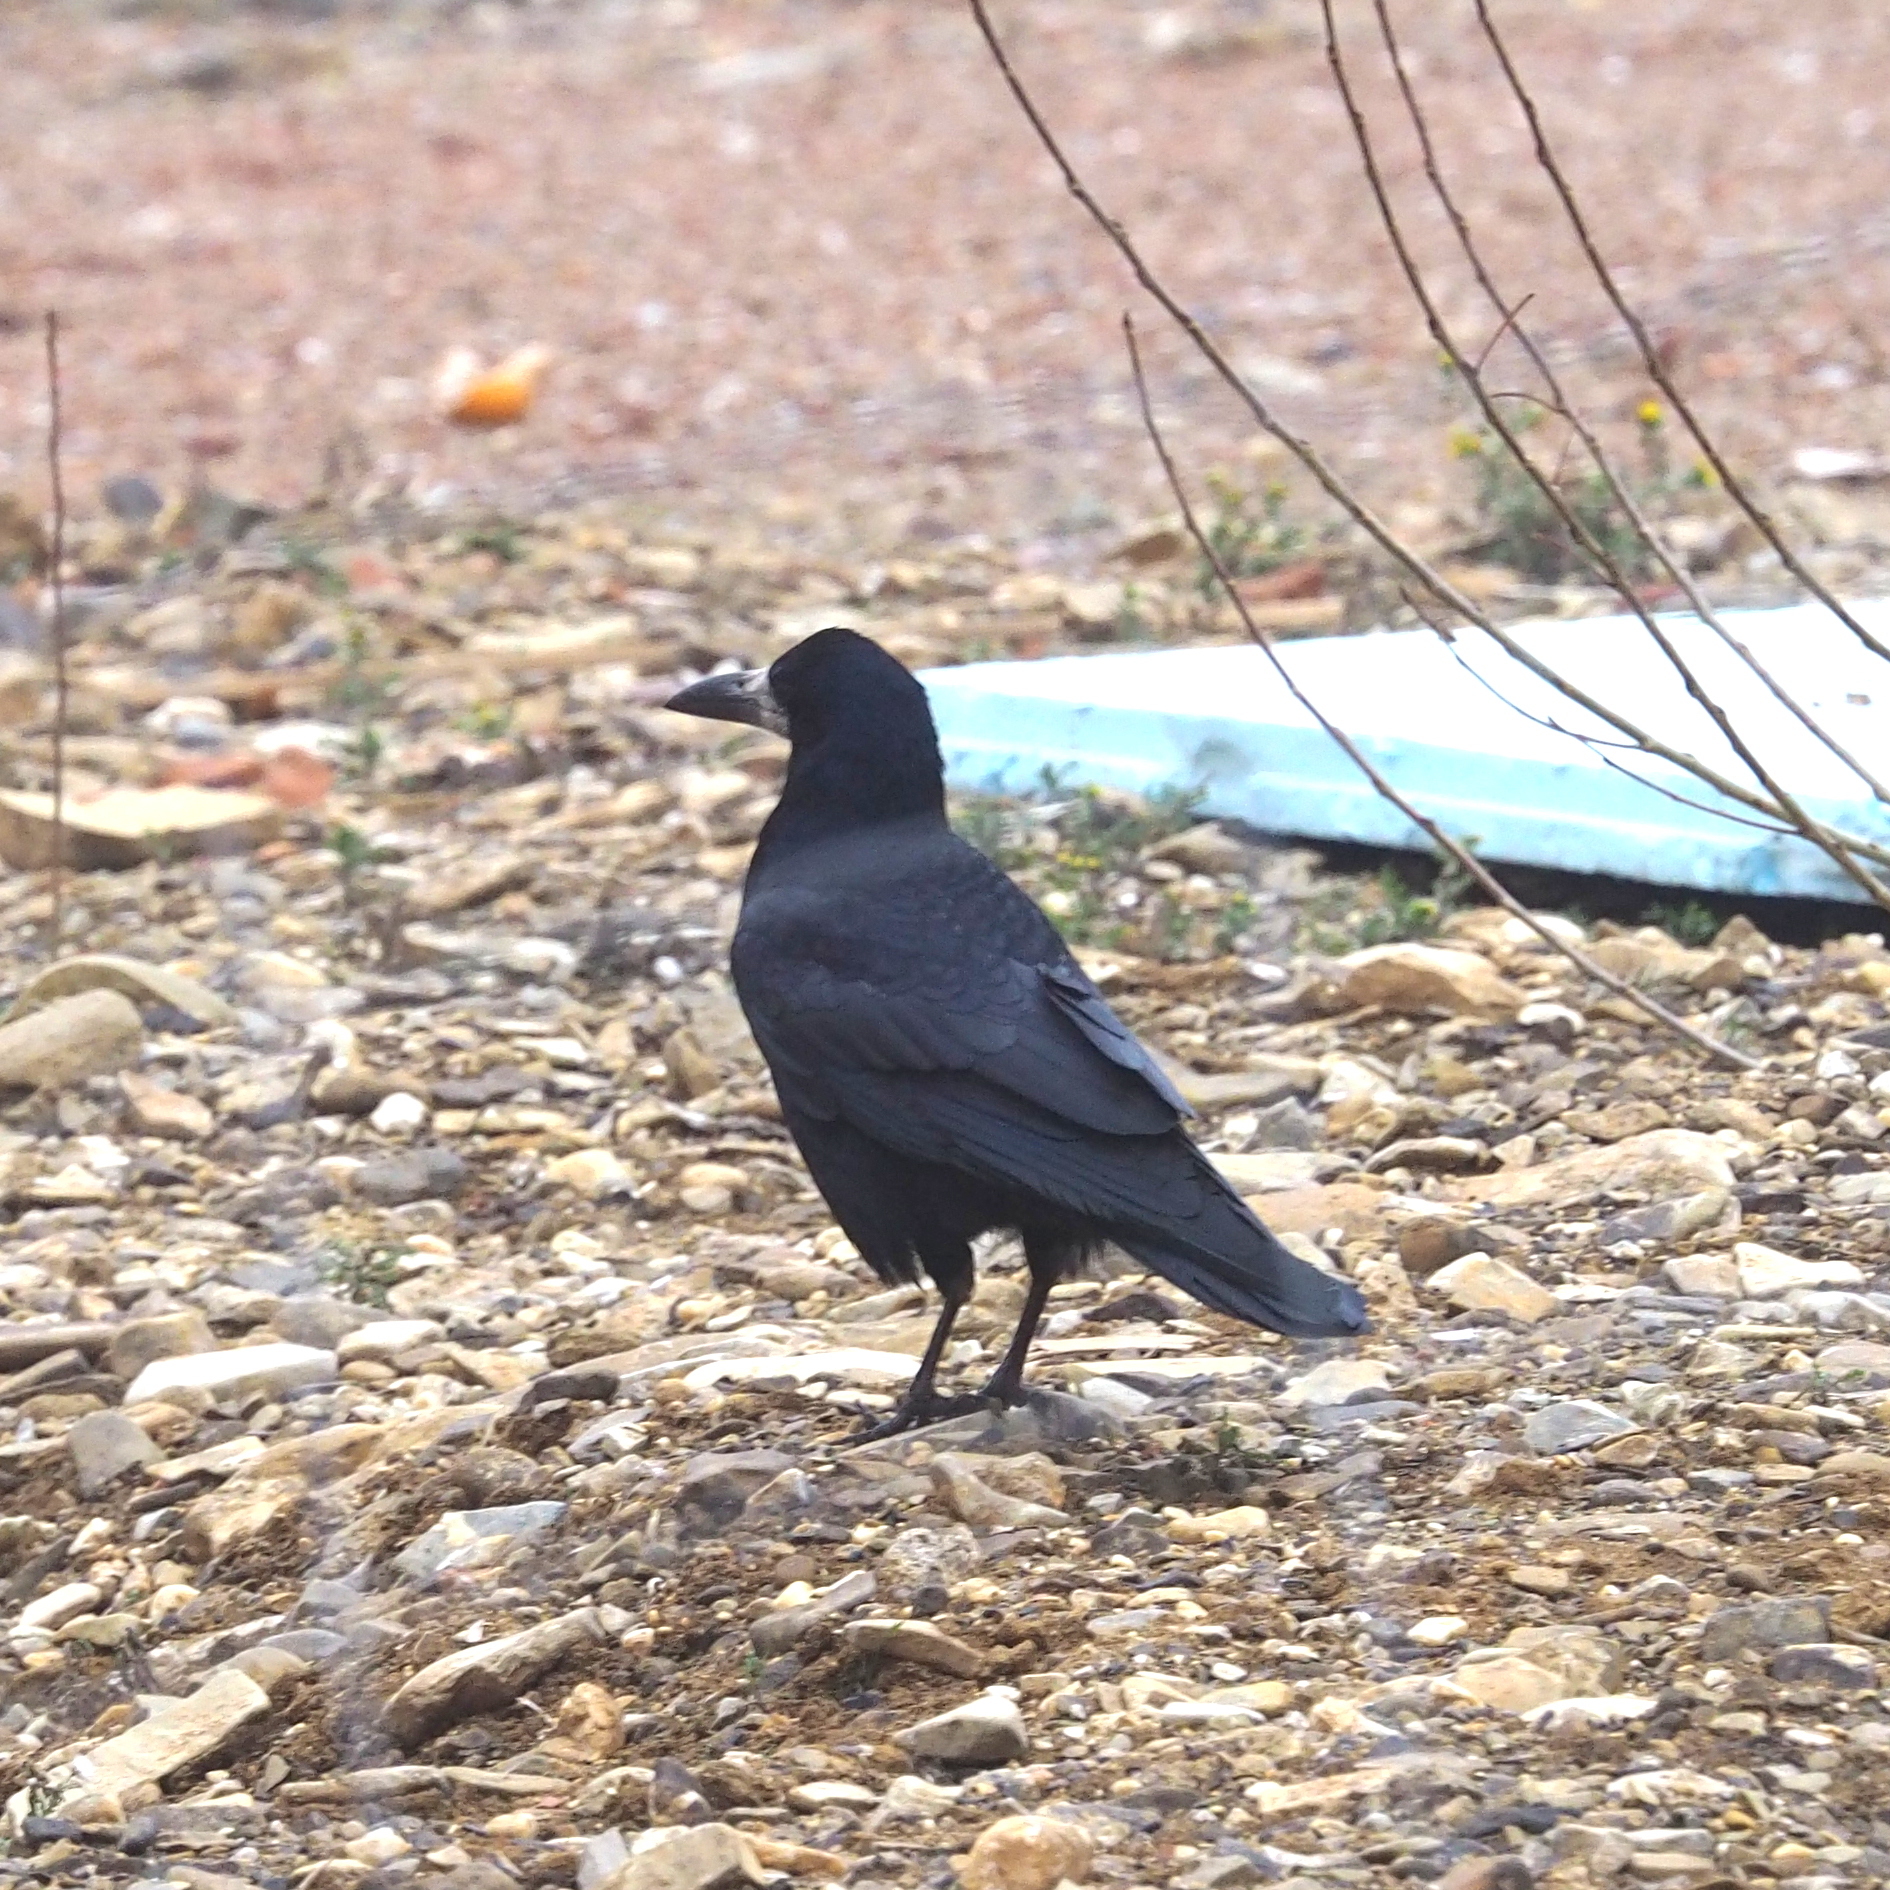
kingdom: Animalia
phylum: Chordata
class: Aves
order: Passeriformes
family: Corvidae
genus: Corvus
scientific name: Corvus frugilegus
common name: Rook
